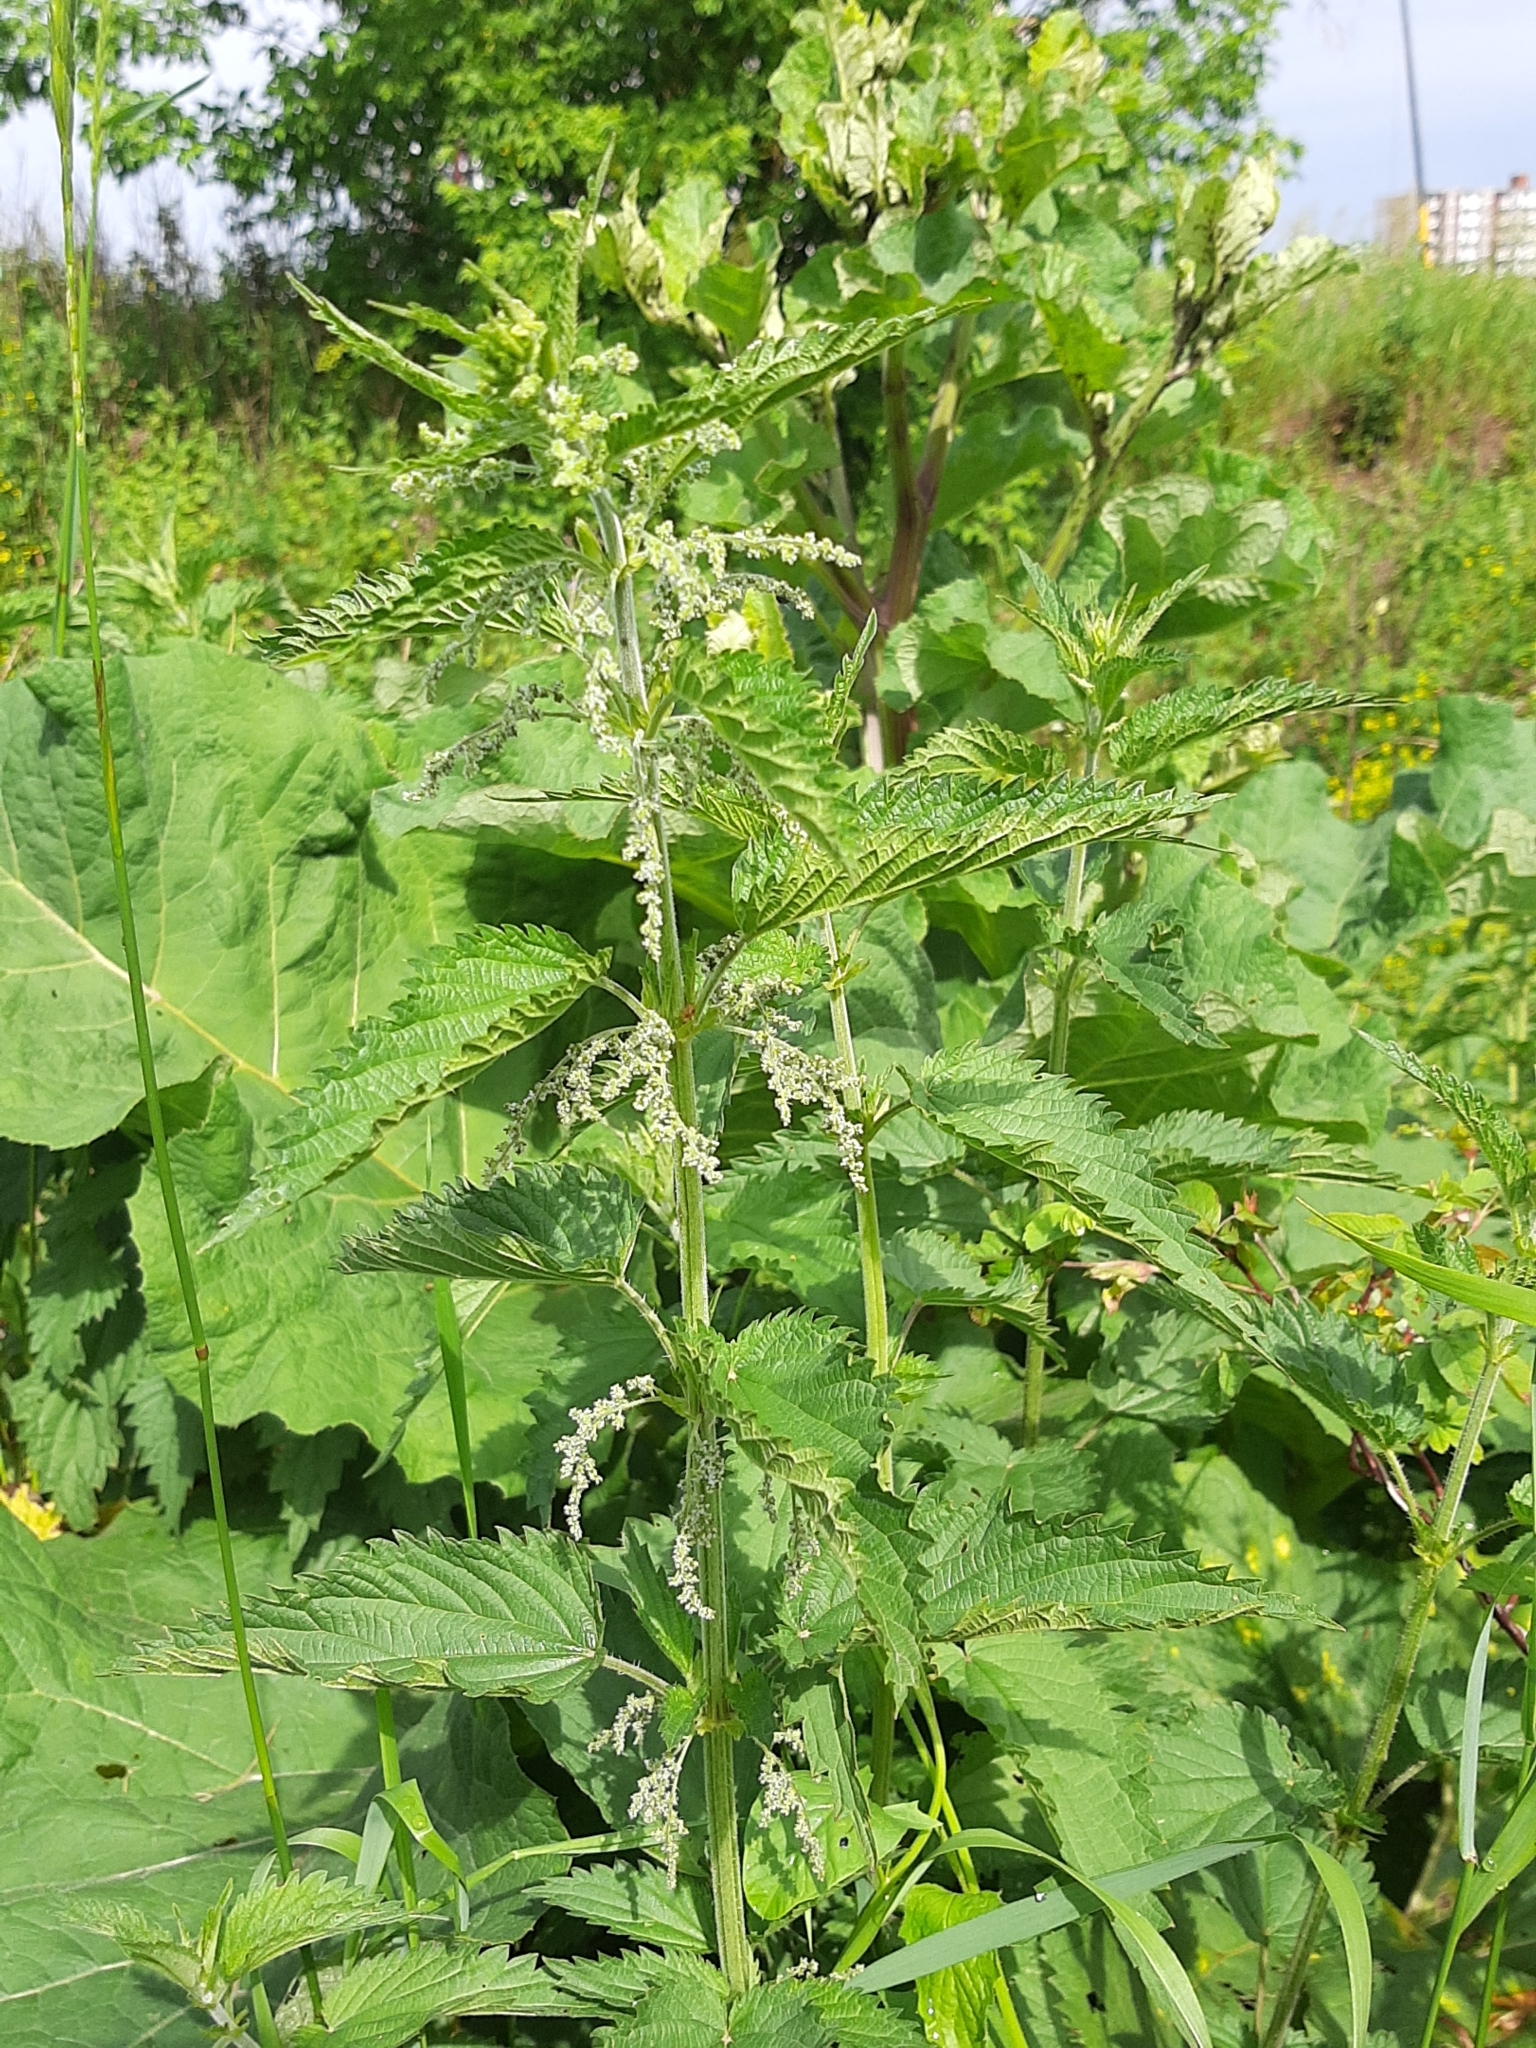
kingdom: Plantae
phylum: Tracheophyta
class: Magnoliopsida
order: Rosales
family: Urticaceae
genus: Urtica
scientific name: Urtica dioica
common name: Common nettle
